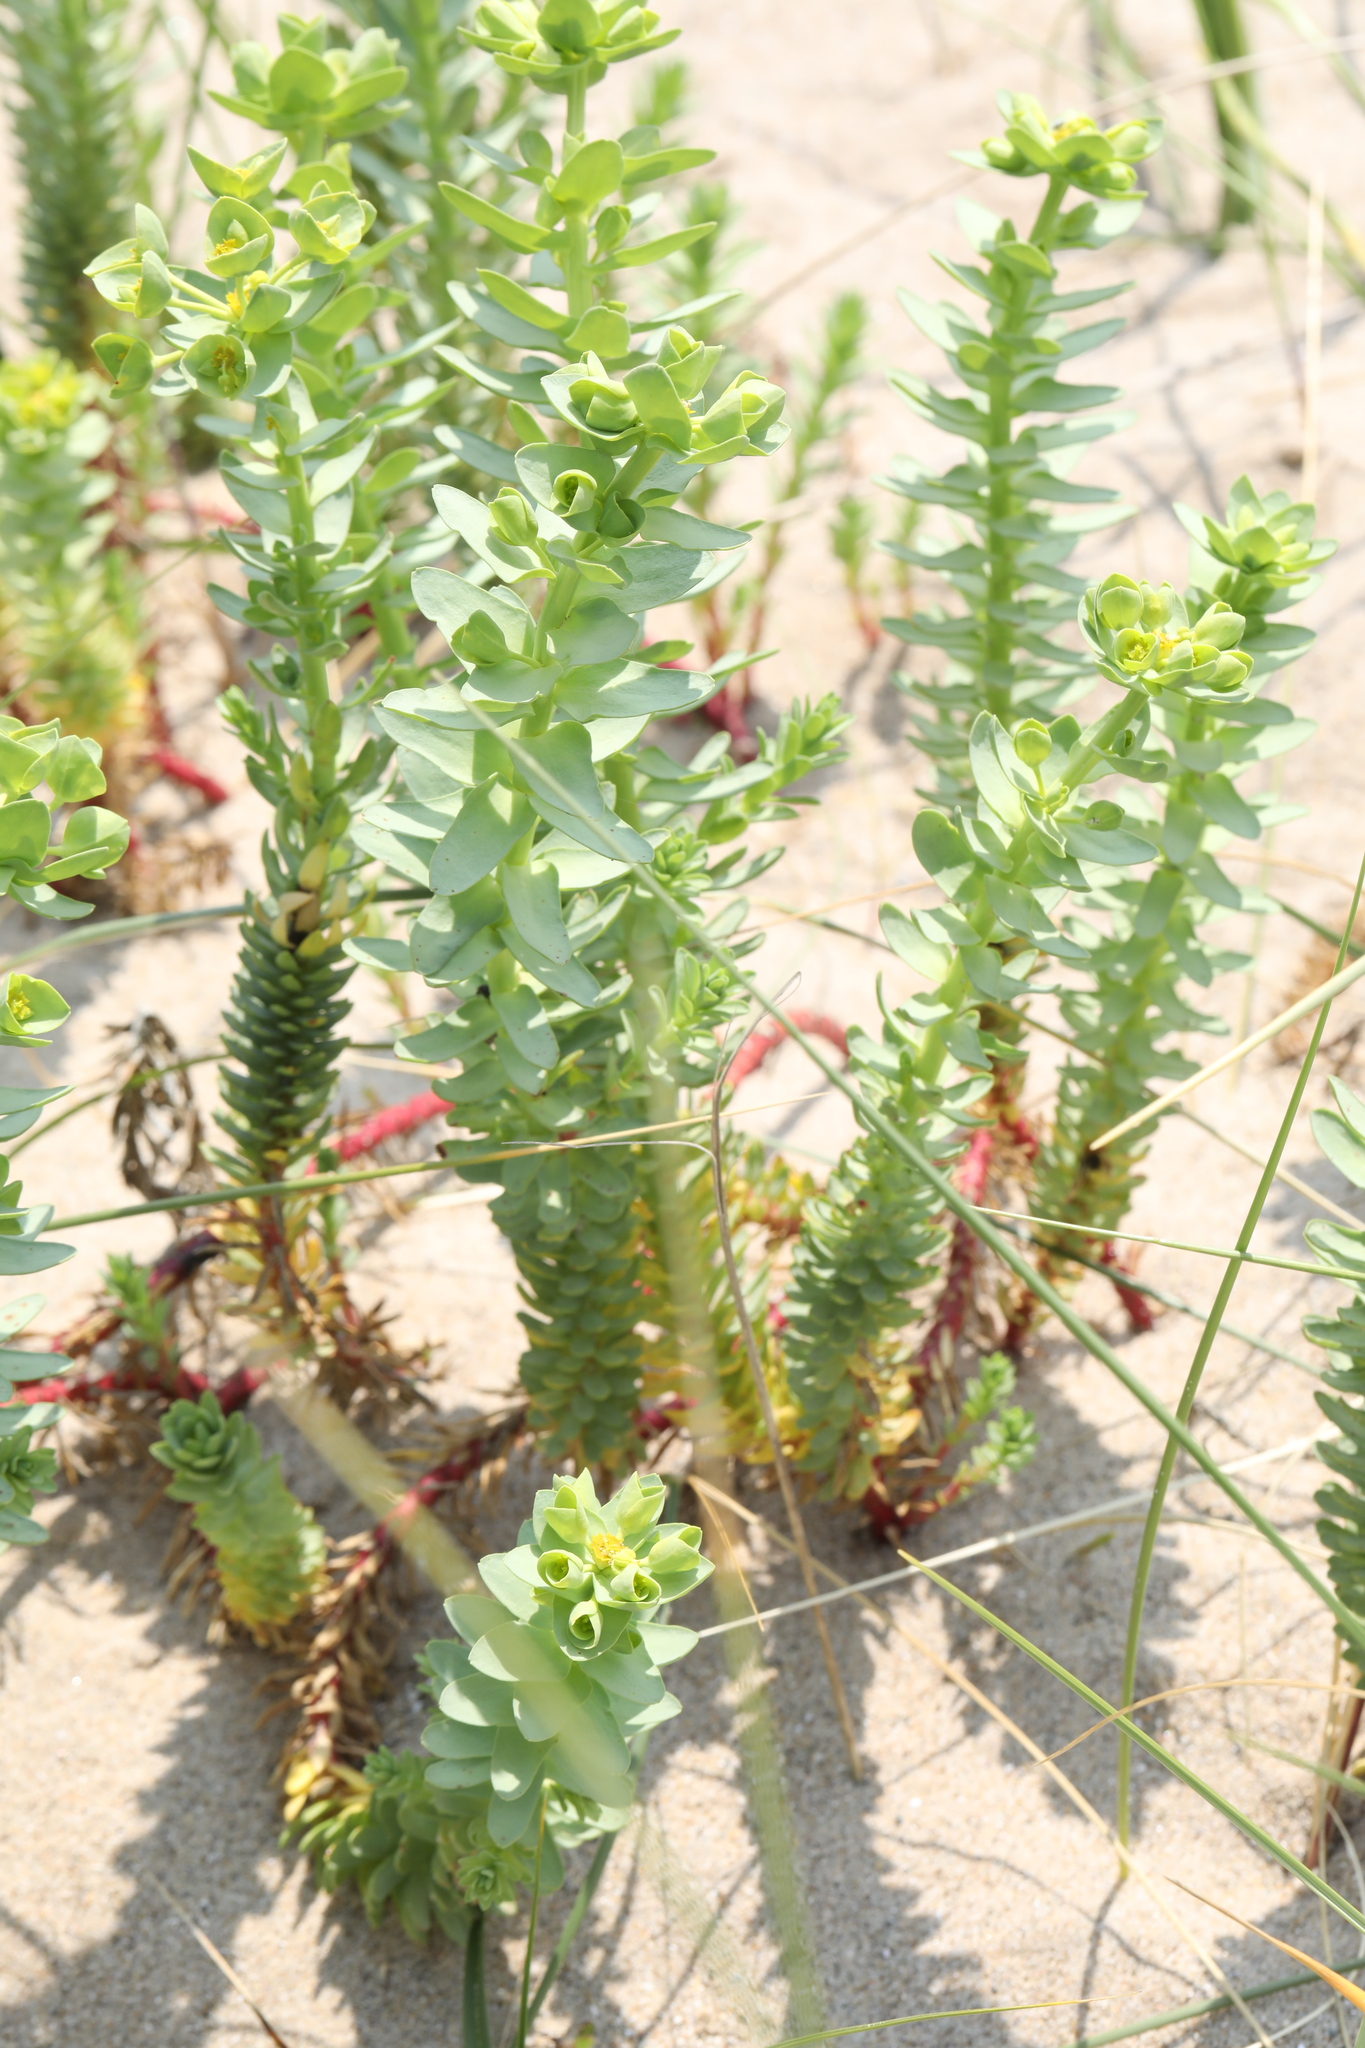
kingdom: Plantae
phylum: Tracheophyta
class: Magnoliopsida
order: Malpighiales
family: Euphorbiaceae
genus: Euphorbia
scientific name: Euphorbia paralias
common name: Sea spurge
